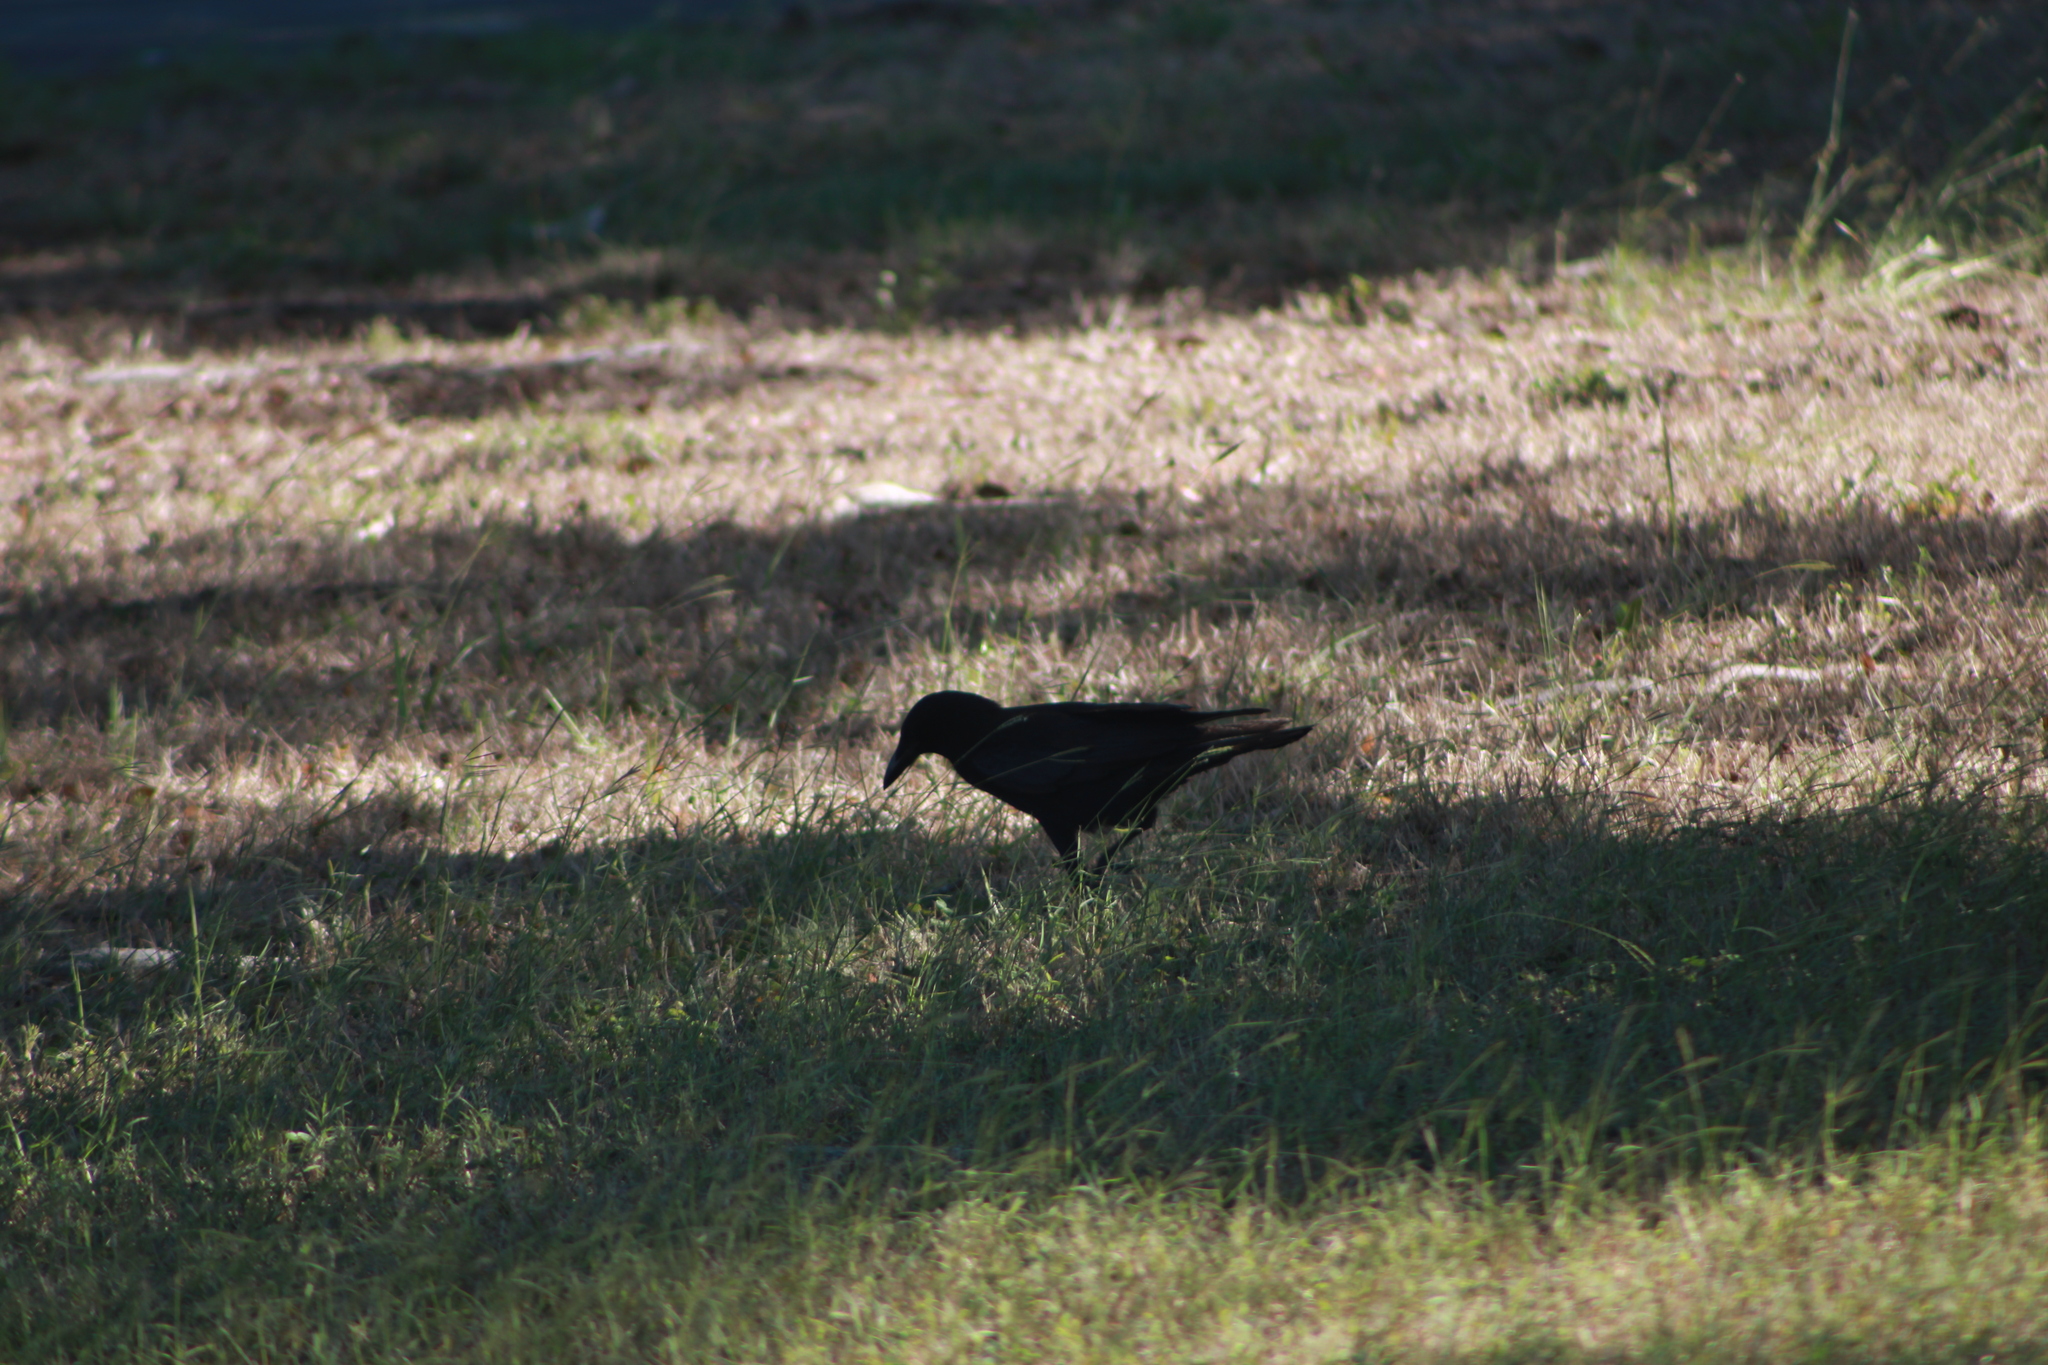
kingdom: Animalia
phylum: Chordata
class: Aves
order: Passeriformes
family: Corvidae
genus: Corvus
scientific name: Corvus brachyrhynchos
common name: American crow
